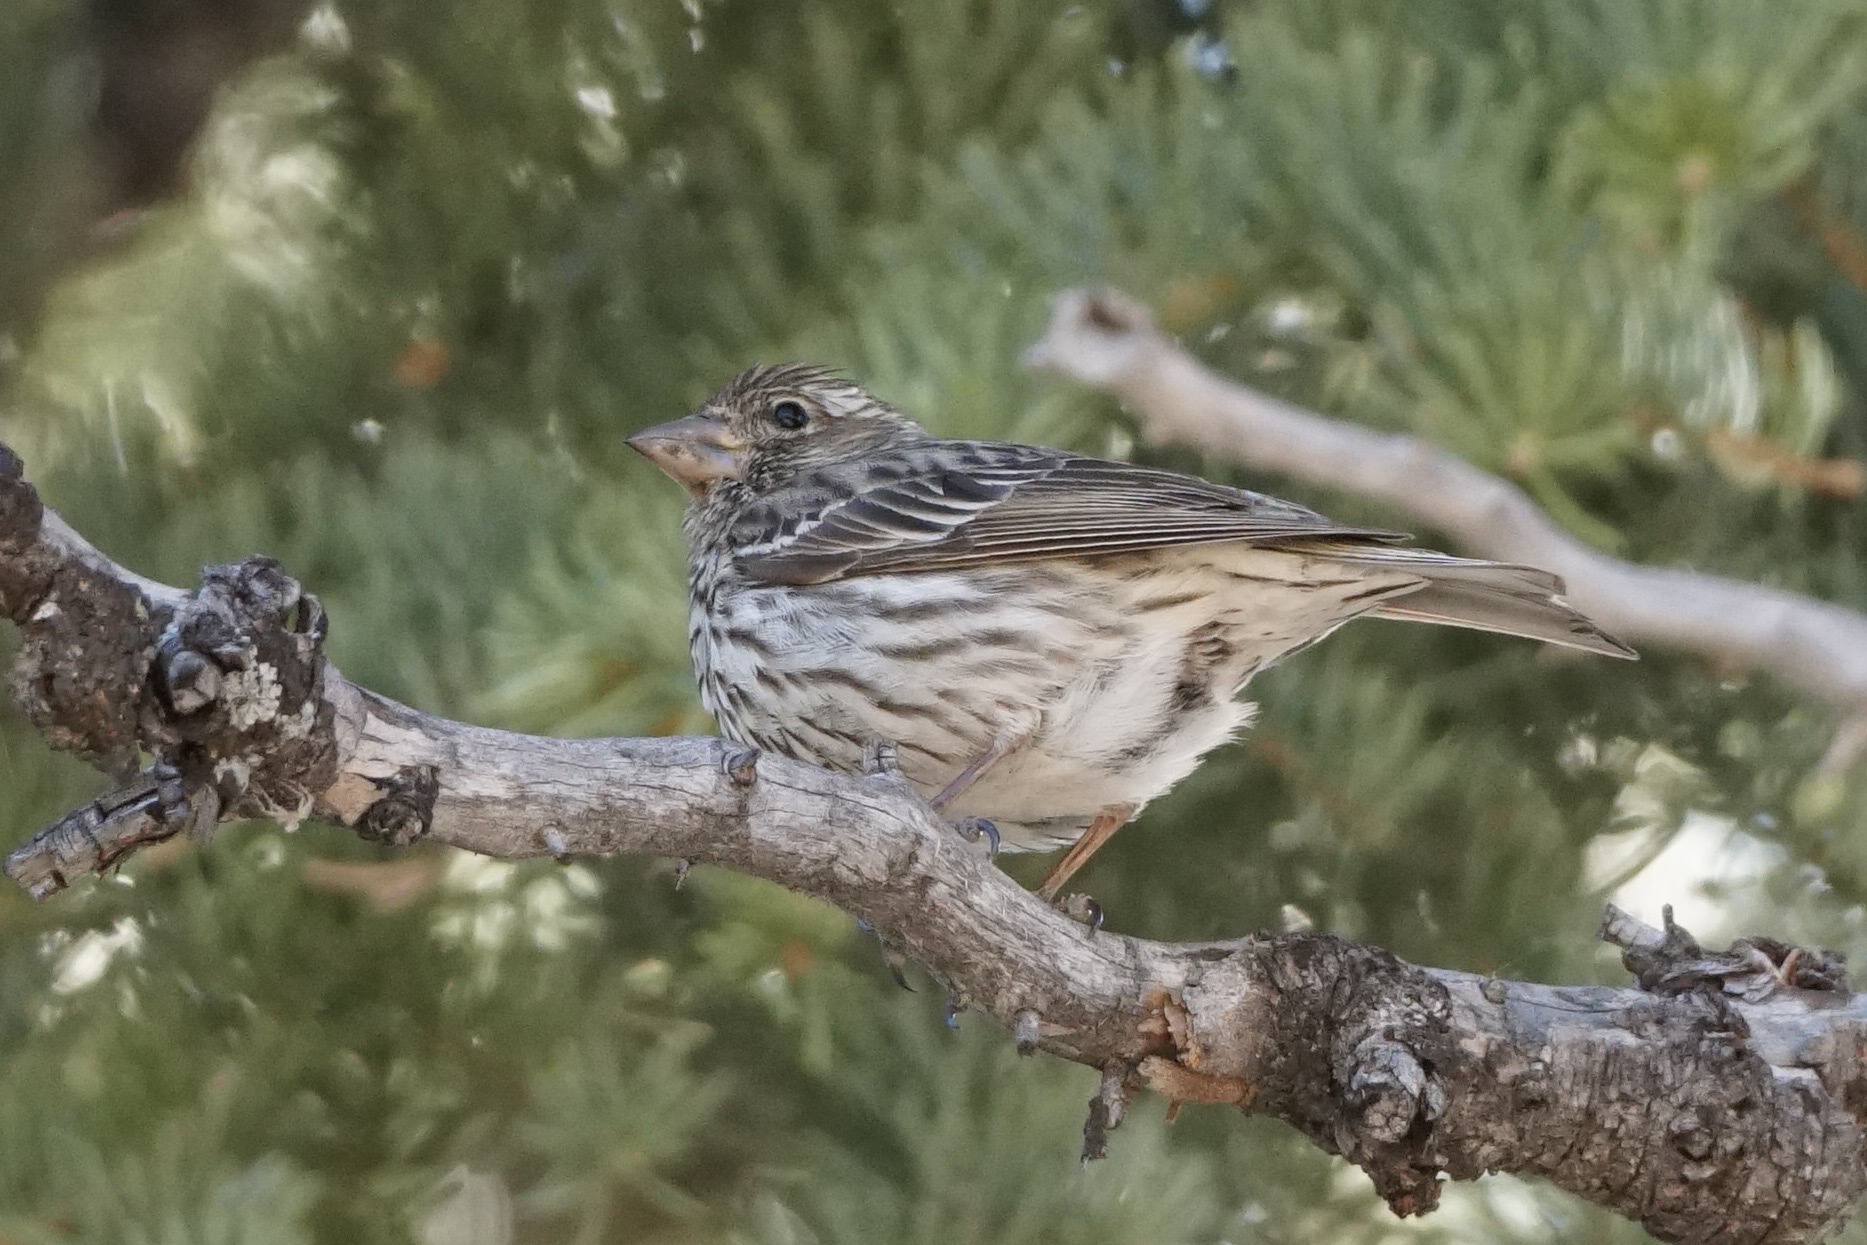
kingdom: Animalia
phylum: Chordata
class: Aves
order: Passeriformes
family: Fringillidae
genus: Haemorhous
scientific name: Haemorhous cassinii
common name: Cassin's finch
